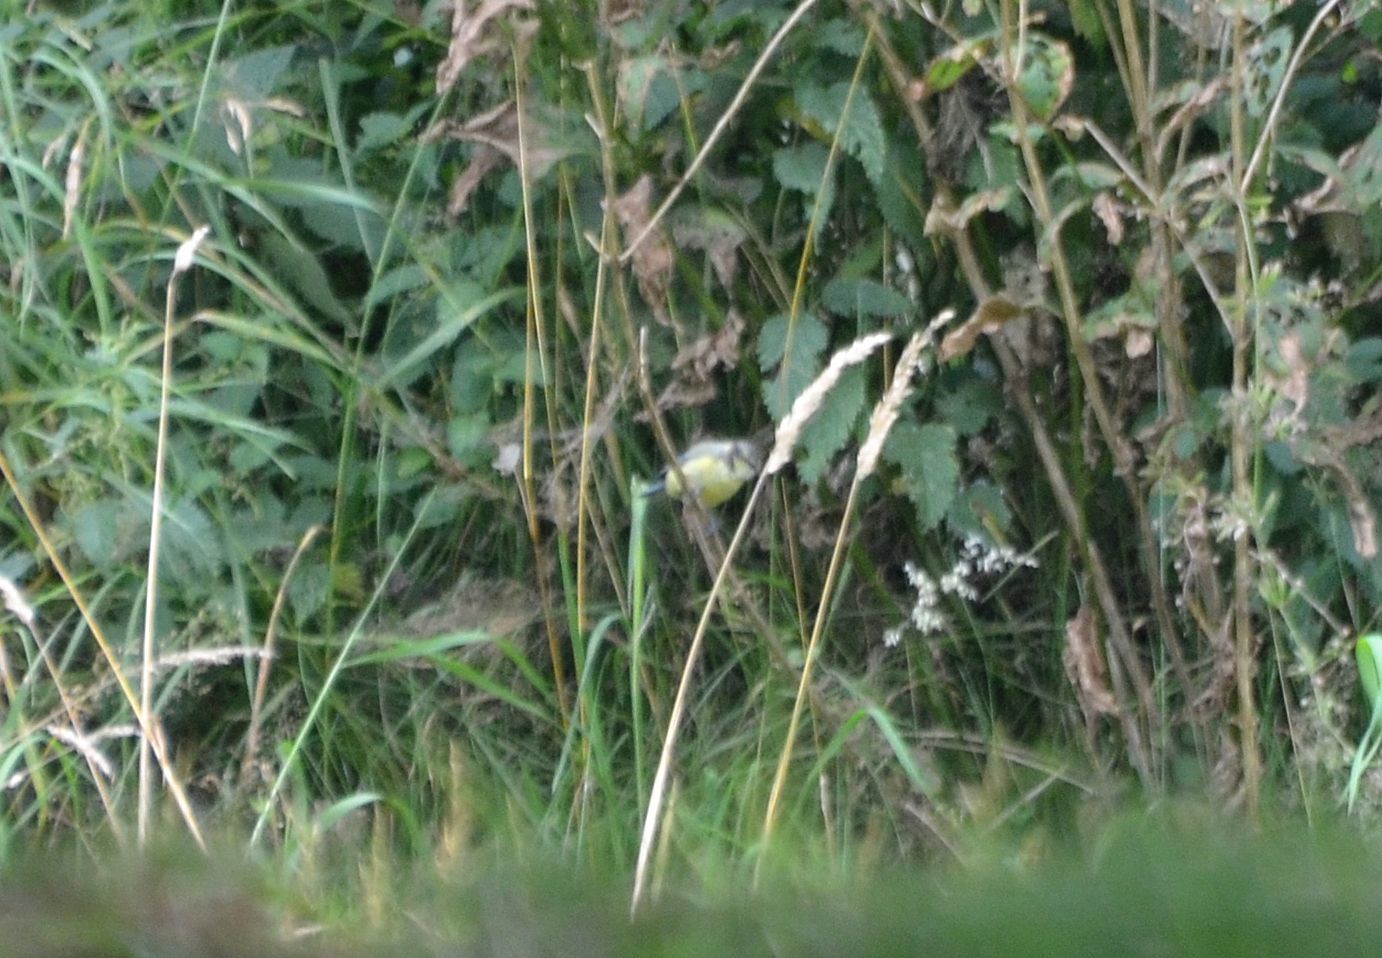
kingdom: Animalia
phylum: Chordata
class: Aves
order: Passeriformes
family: Paridae
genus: Cyanistes
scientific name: Cyanistes caeruleus
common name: Eurasian blue tit
